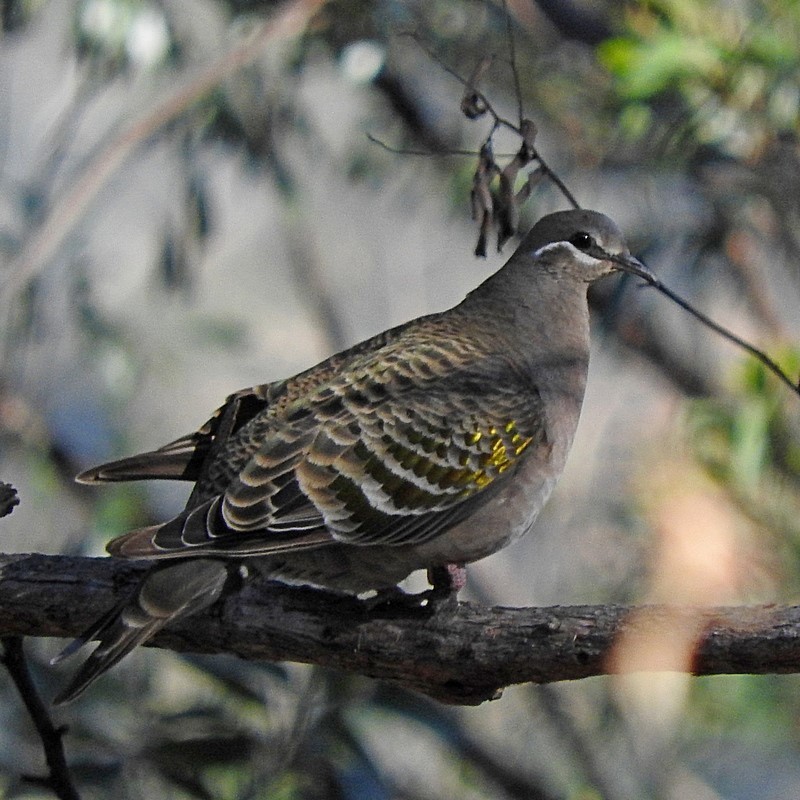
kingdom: Animalia
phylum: Chordata
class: Aves
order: Columbiformes
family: Columbidae
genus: Phaps
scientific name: Phaps chalcoptera
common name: Common bronzewing
